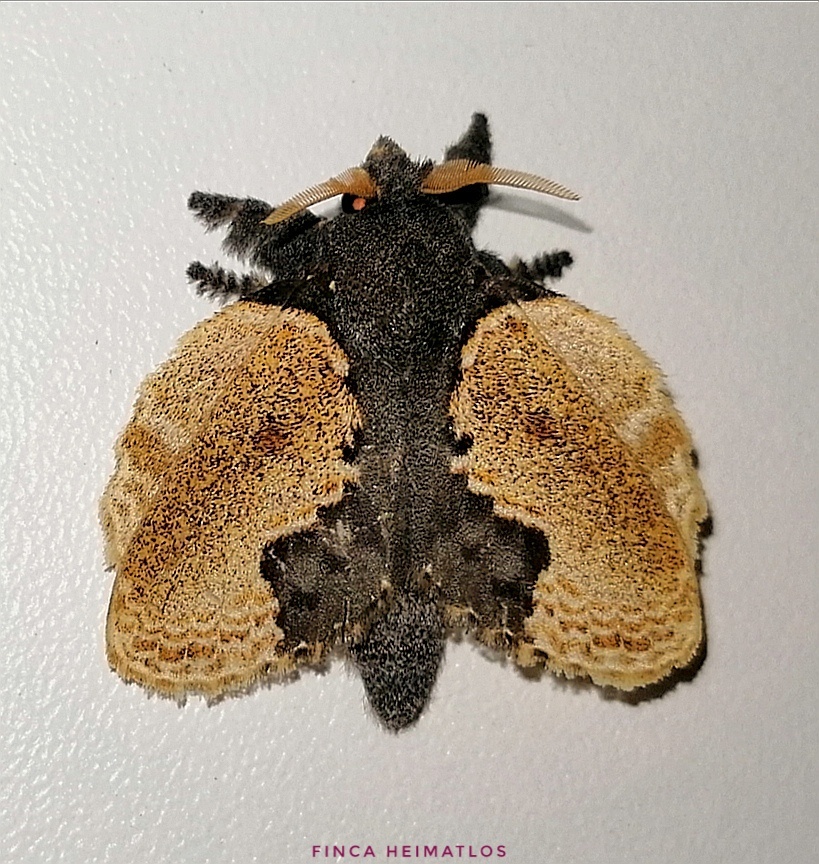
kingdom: Animalia
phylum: Arthropoda
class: Insecta
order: Lepidoptera
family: Lasiocampidae
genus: Euglyphis
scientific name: Euglyphis marna
